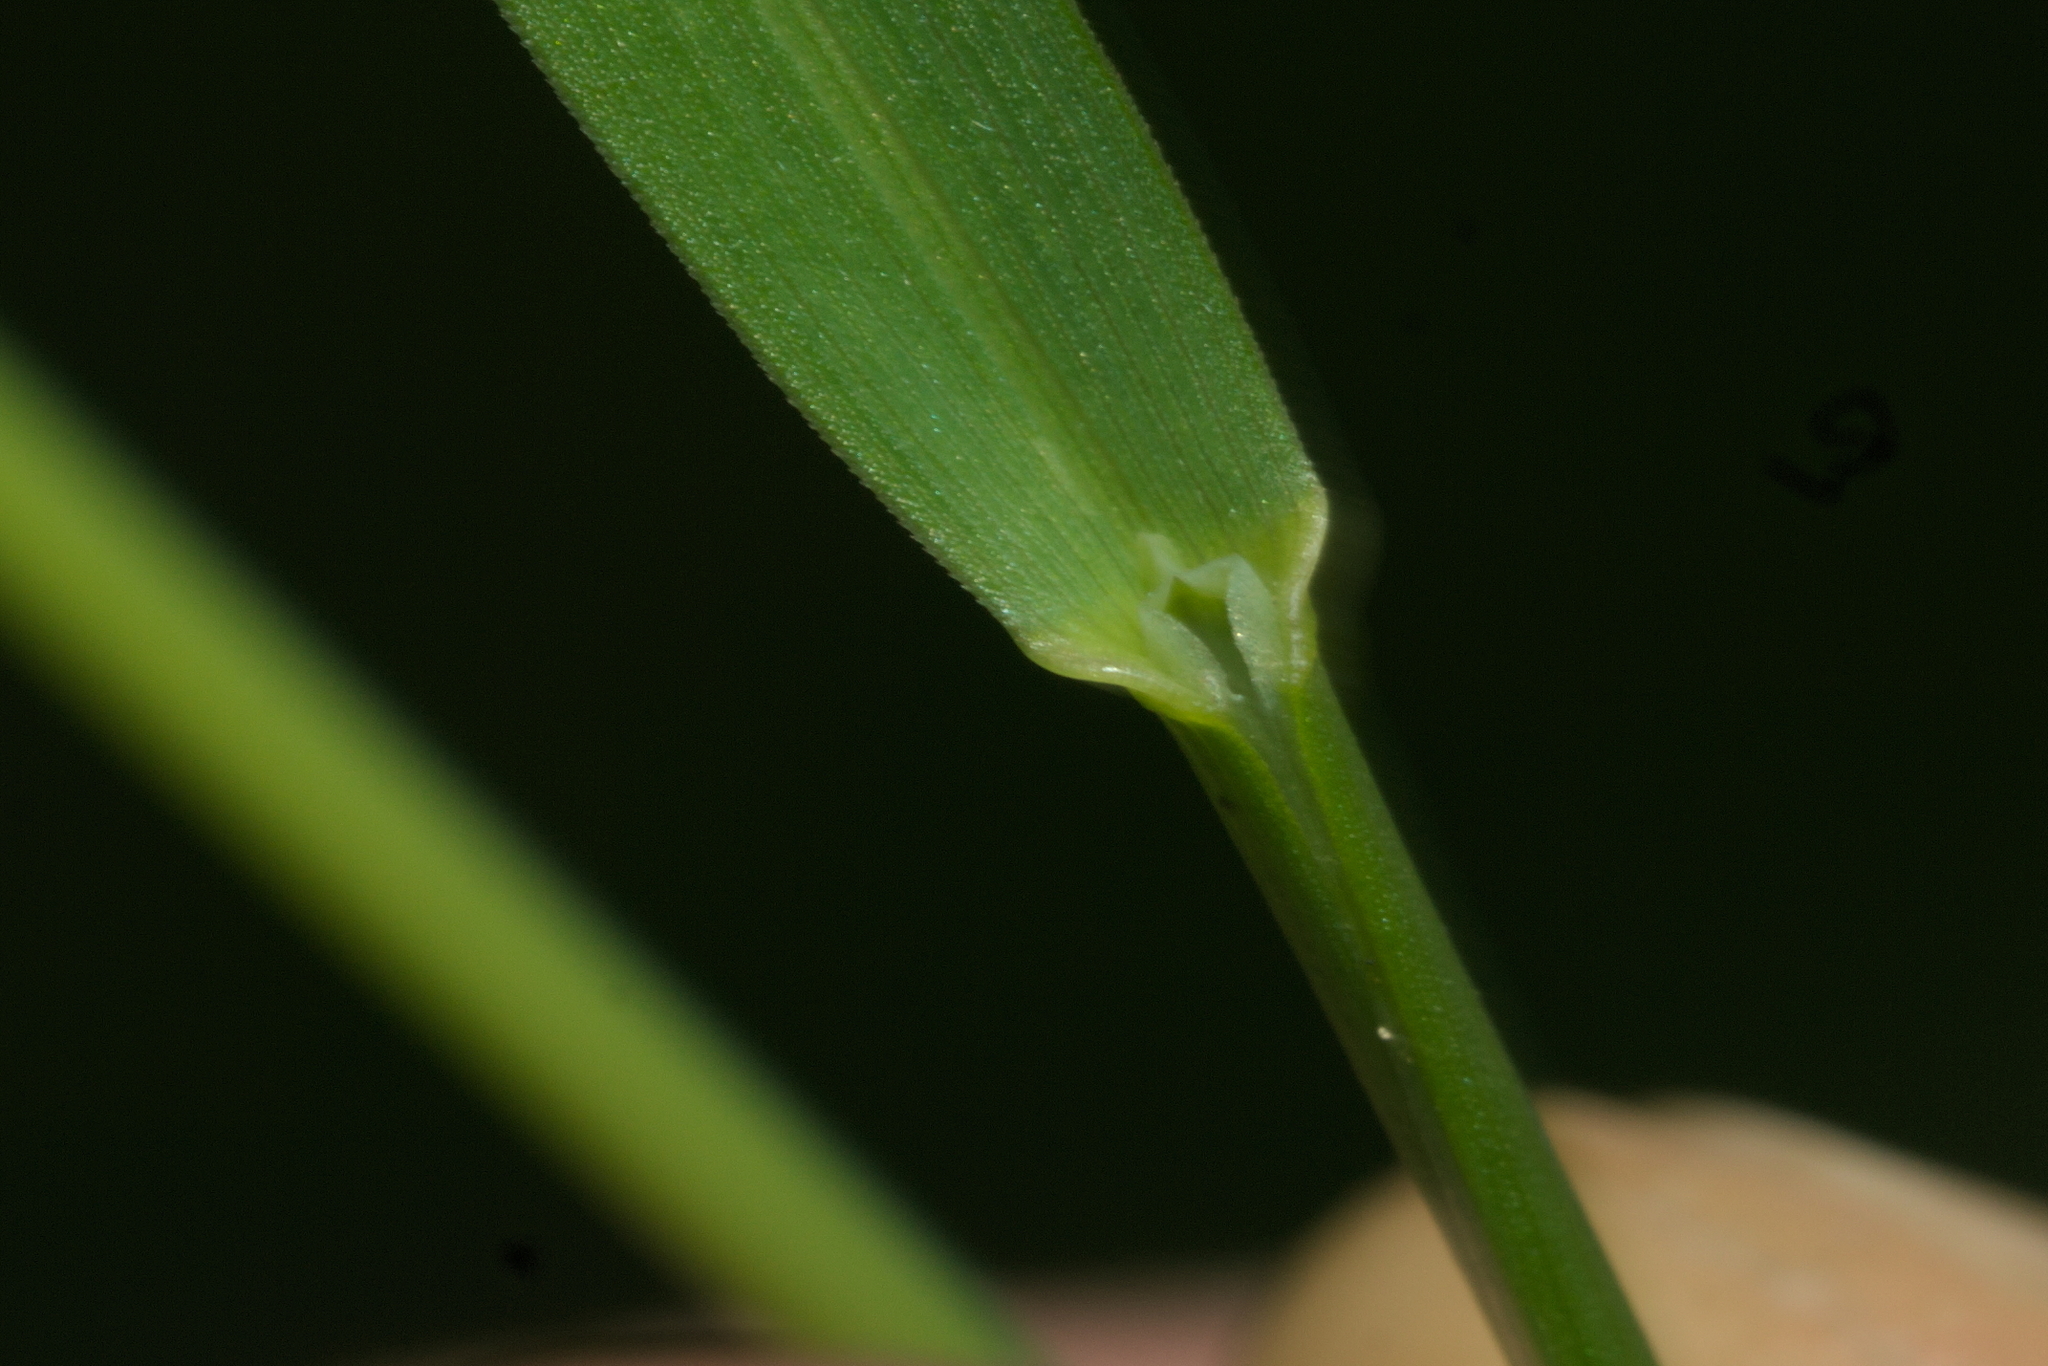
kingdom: Plantae
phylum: Tracheophyta
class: Liliopsida
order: Poales
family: Poaceae
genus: Poa
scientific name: Poa pratensis
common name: Kentucky bluegrass
